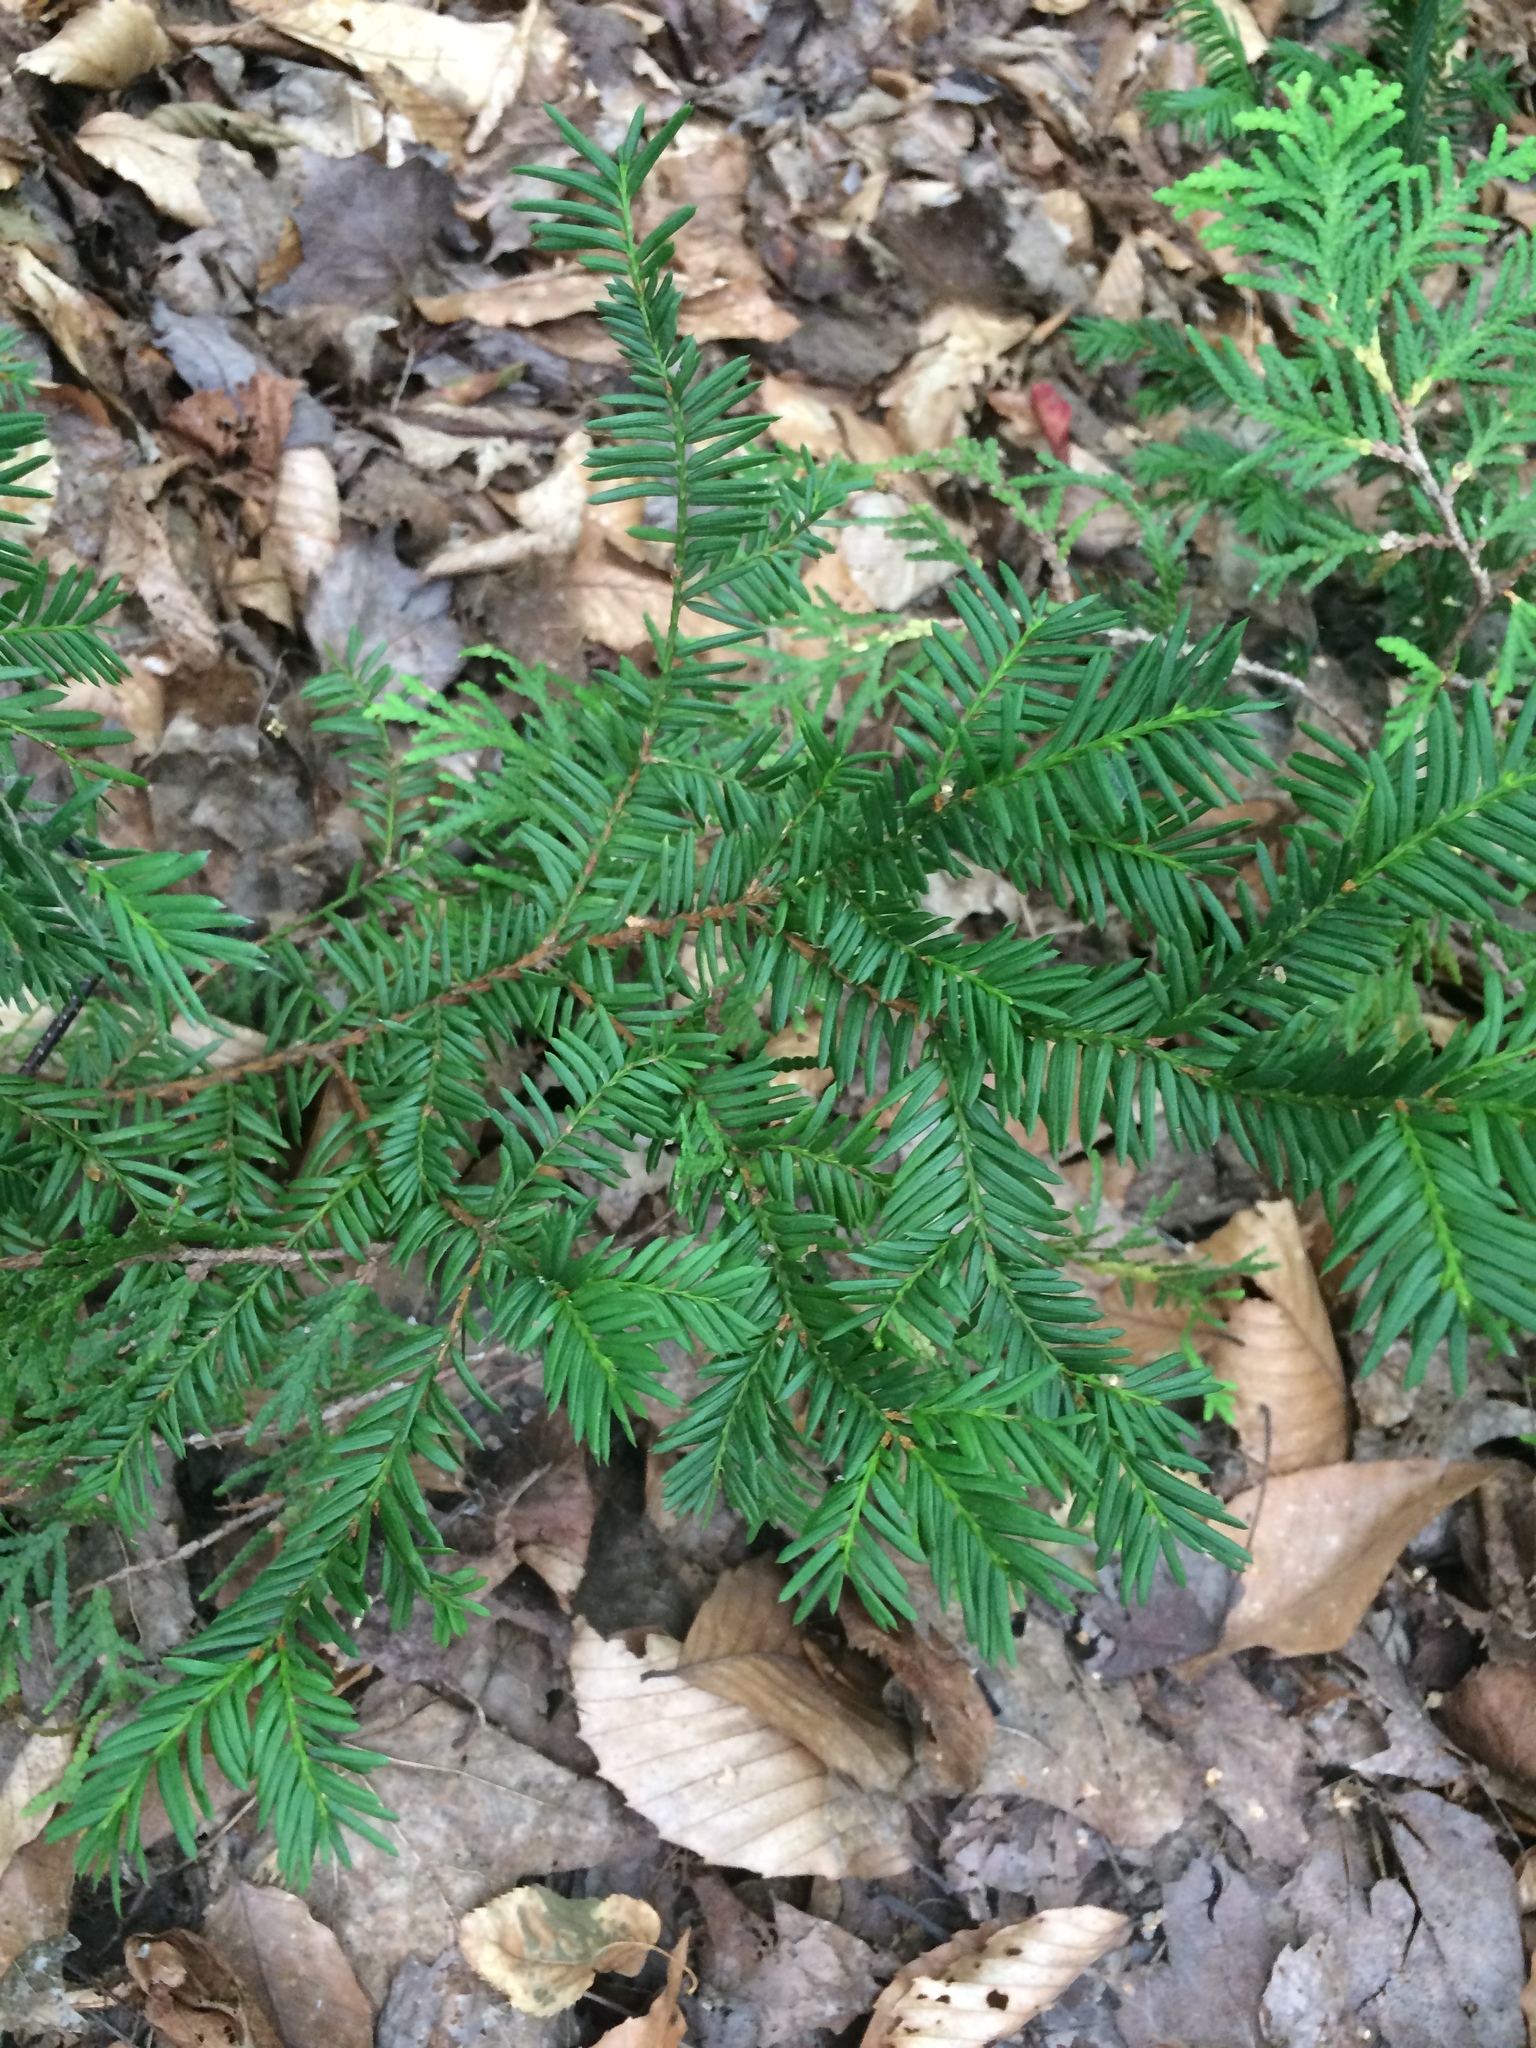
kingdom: Plantae
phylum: Tracheophyta
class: Pinopsida
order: Pinales
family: Taxaceae
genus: Taxus
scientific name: Taxus canadensis
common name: American yew
